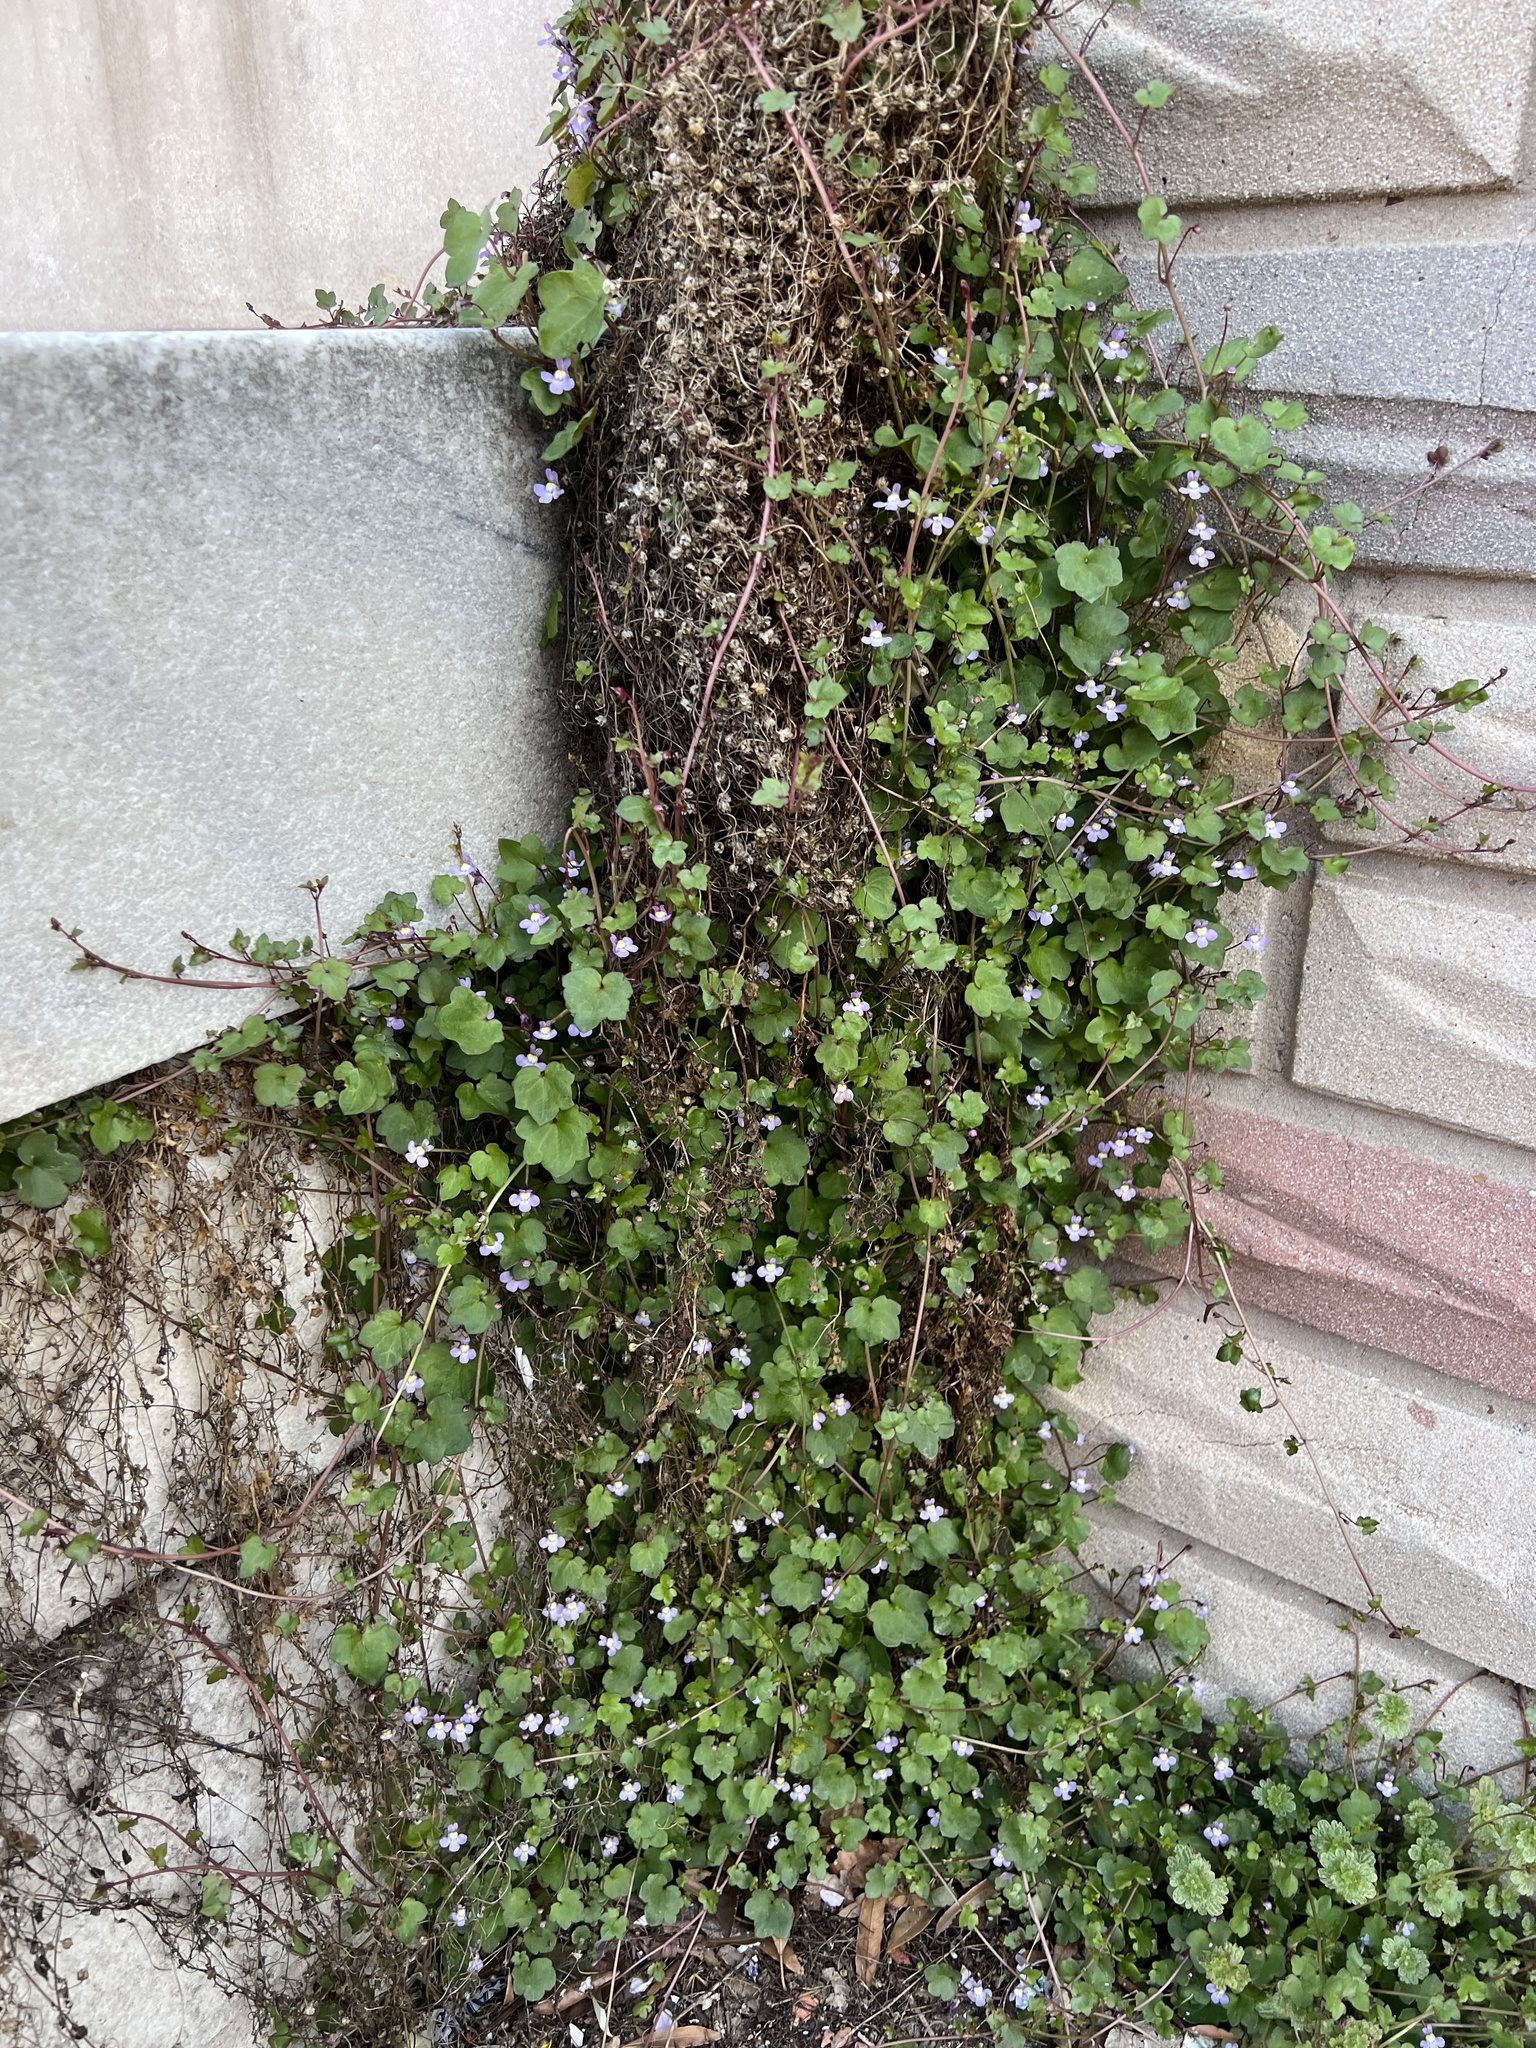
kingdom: Plantae
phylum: Tracheophyta
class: Magnoliopsida
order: Lamiales
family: Plantaginaceae
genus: Cymbalaria
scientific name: Cymbalaria muralis
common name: Ivy-leaved toadflax
